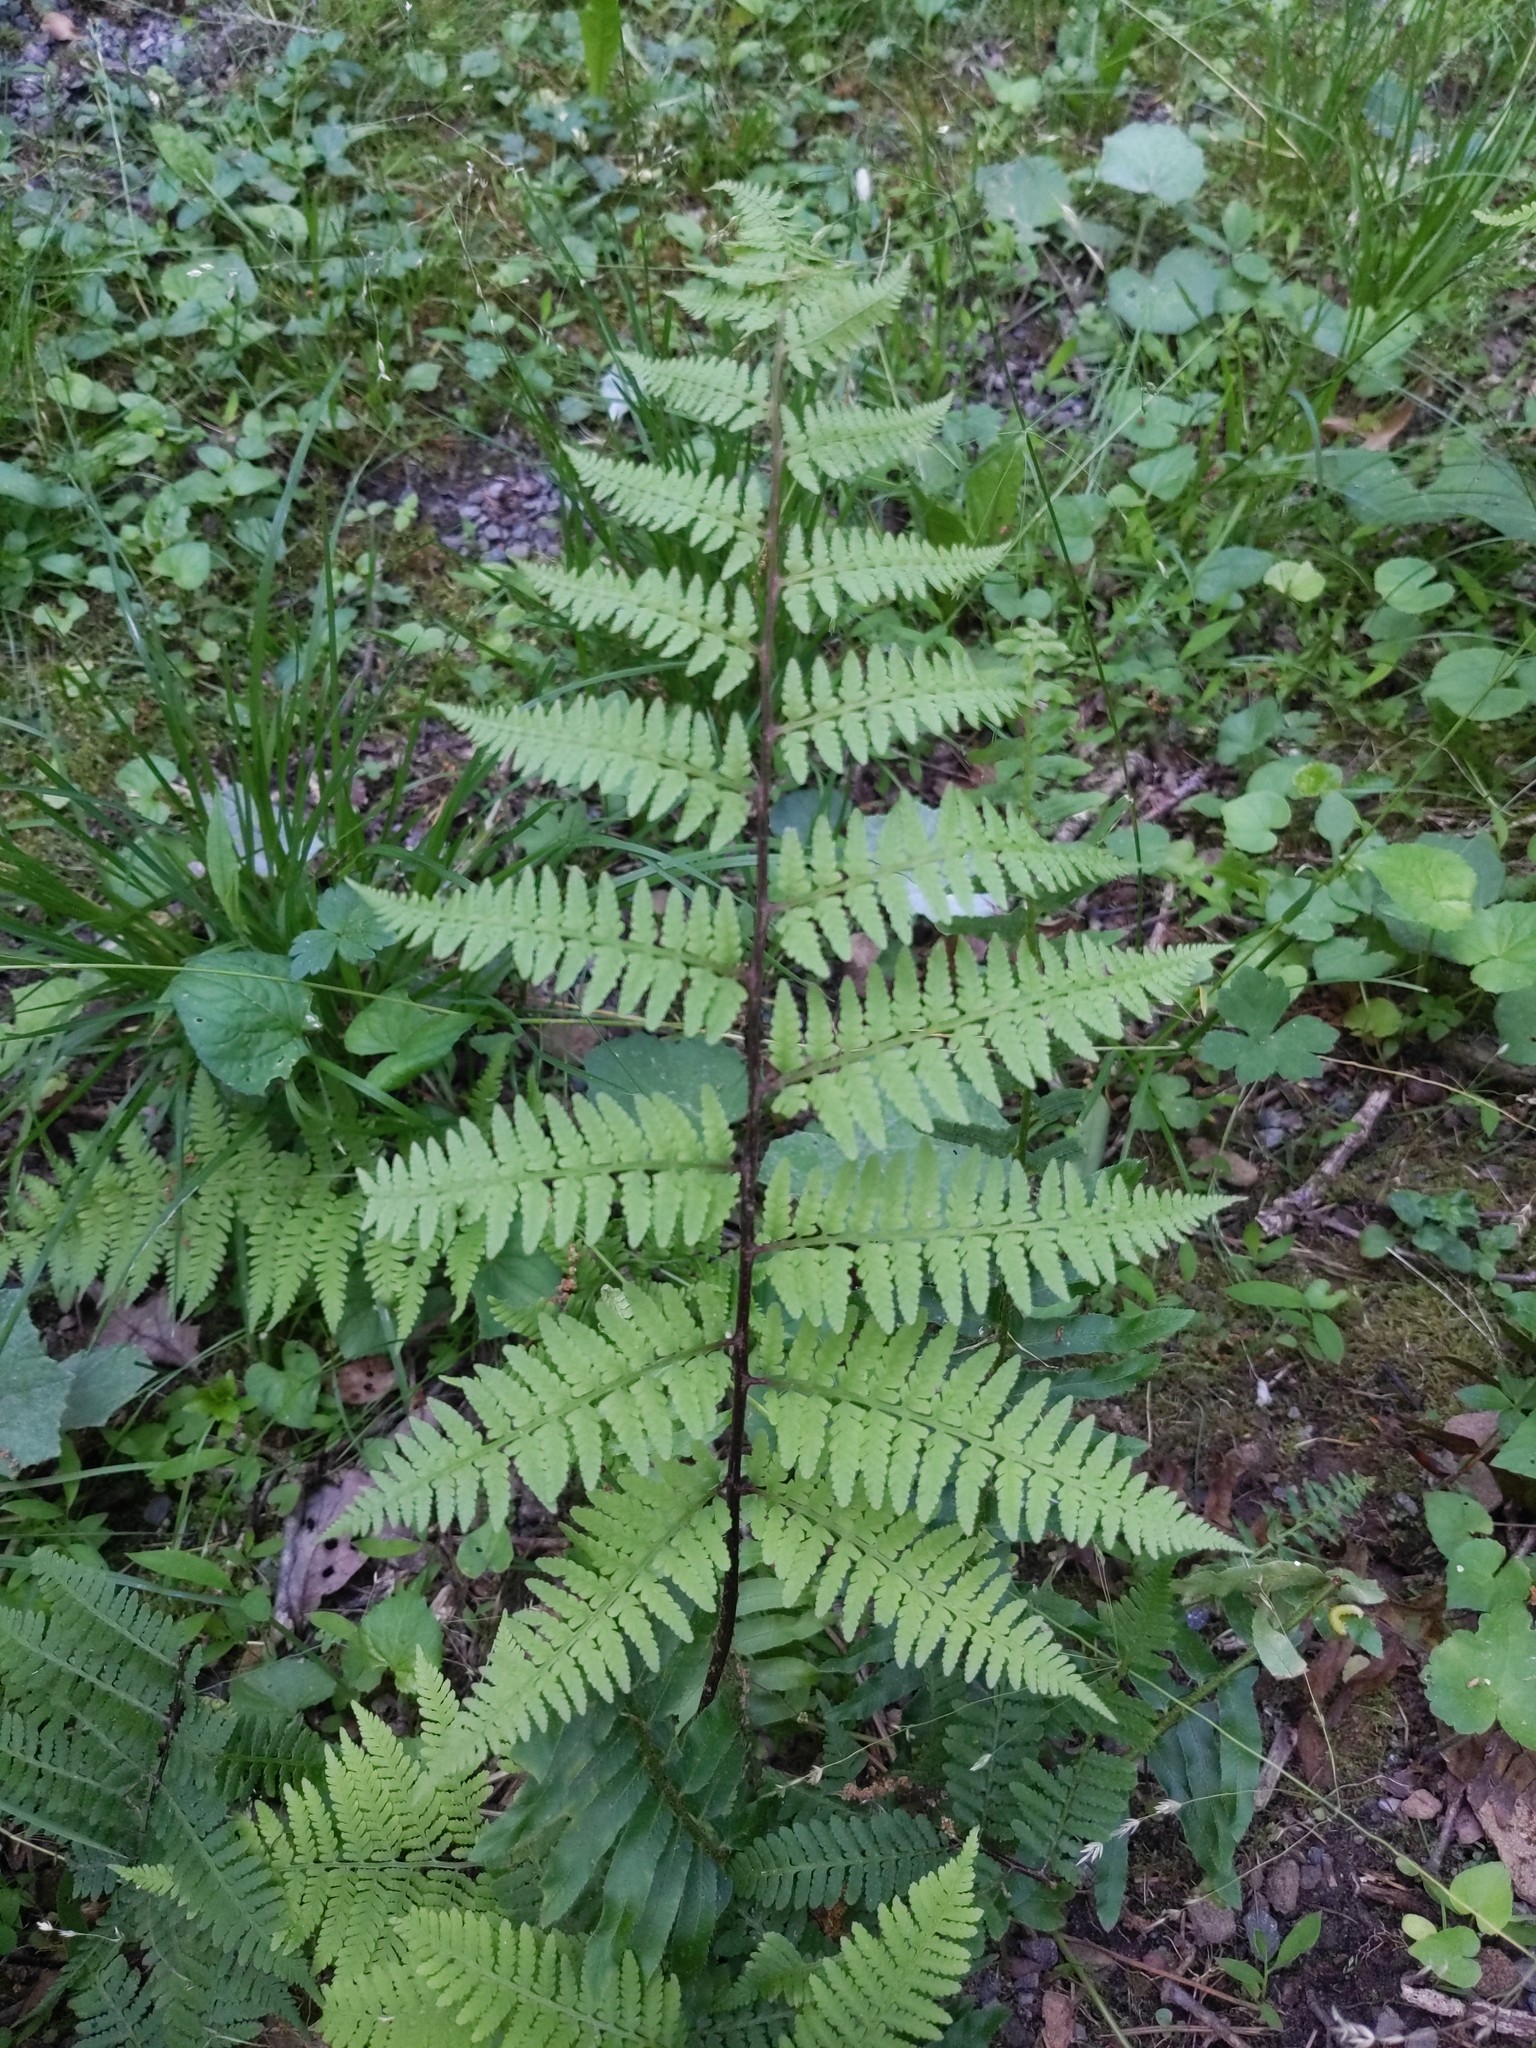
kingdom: Plantae
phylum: Tracheophyta
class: Polypodiopsida
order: Polypodiales
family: Athyriaceae
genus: Athyrium
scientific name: Athyrium asplenioides
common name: Southern lady fern
